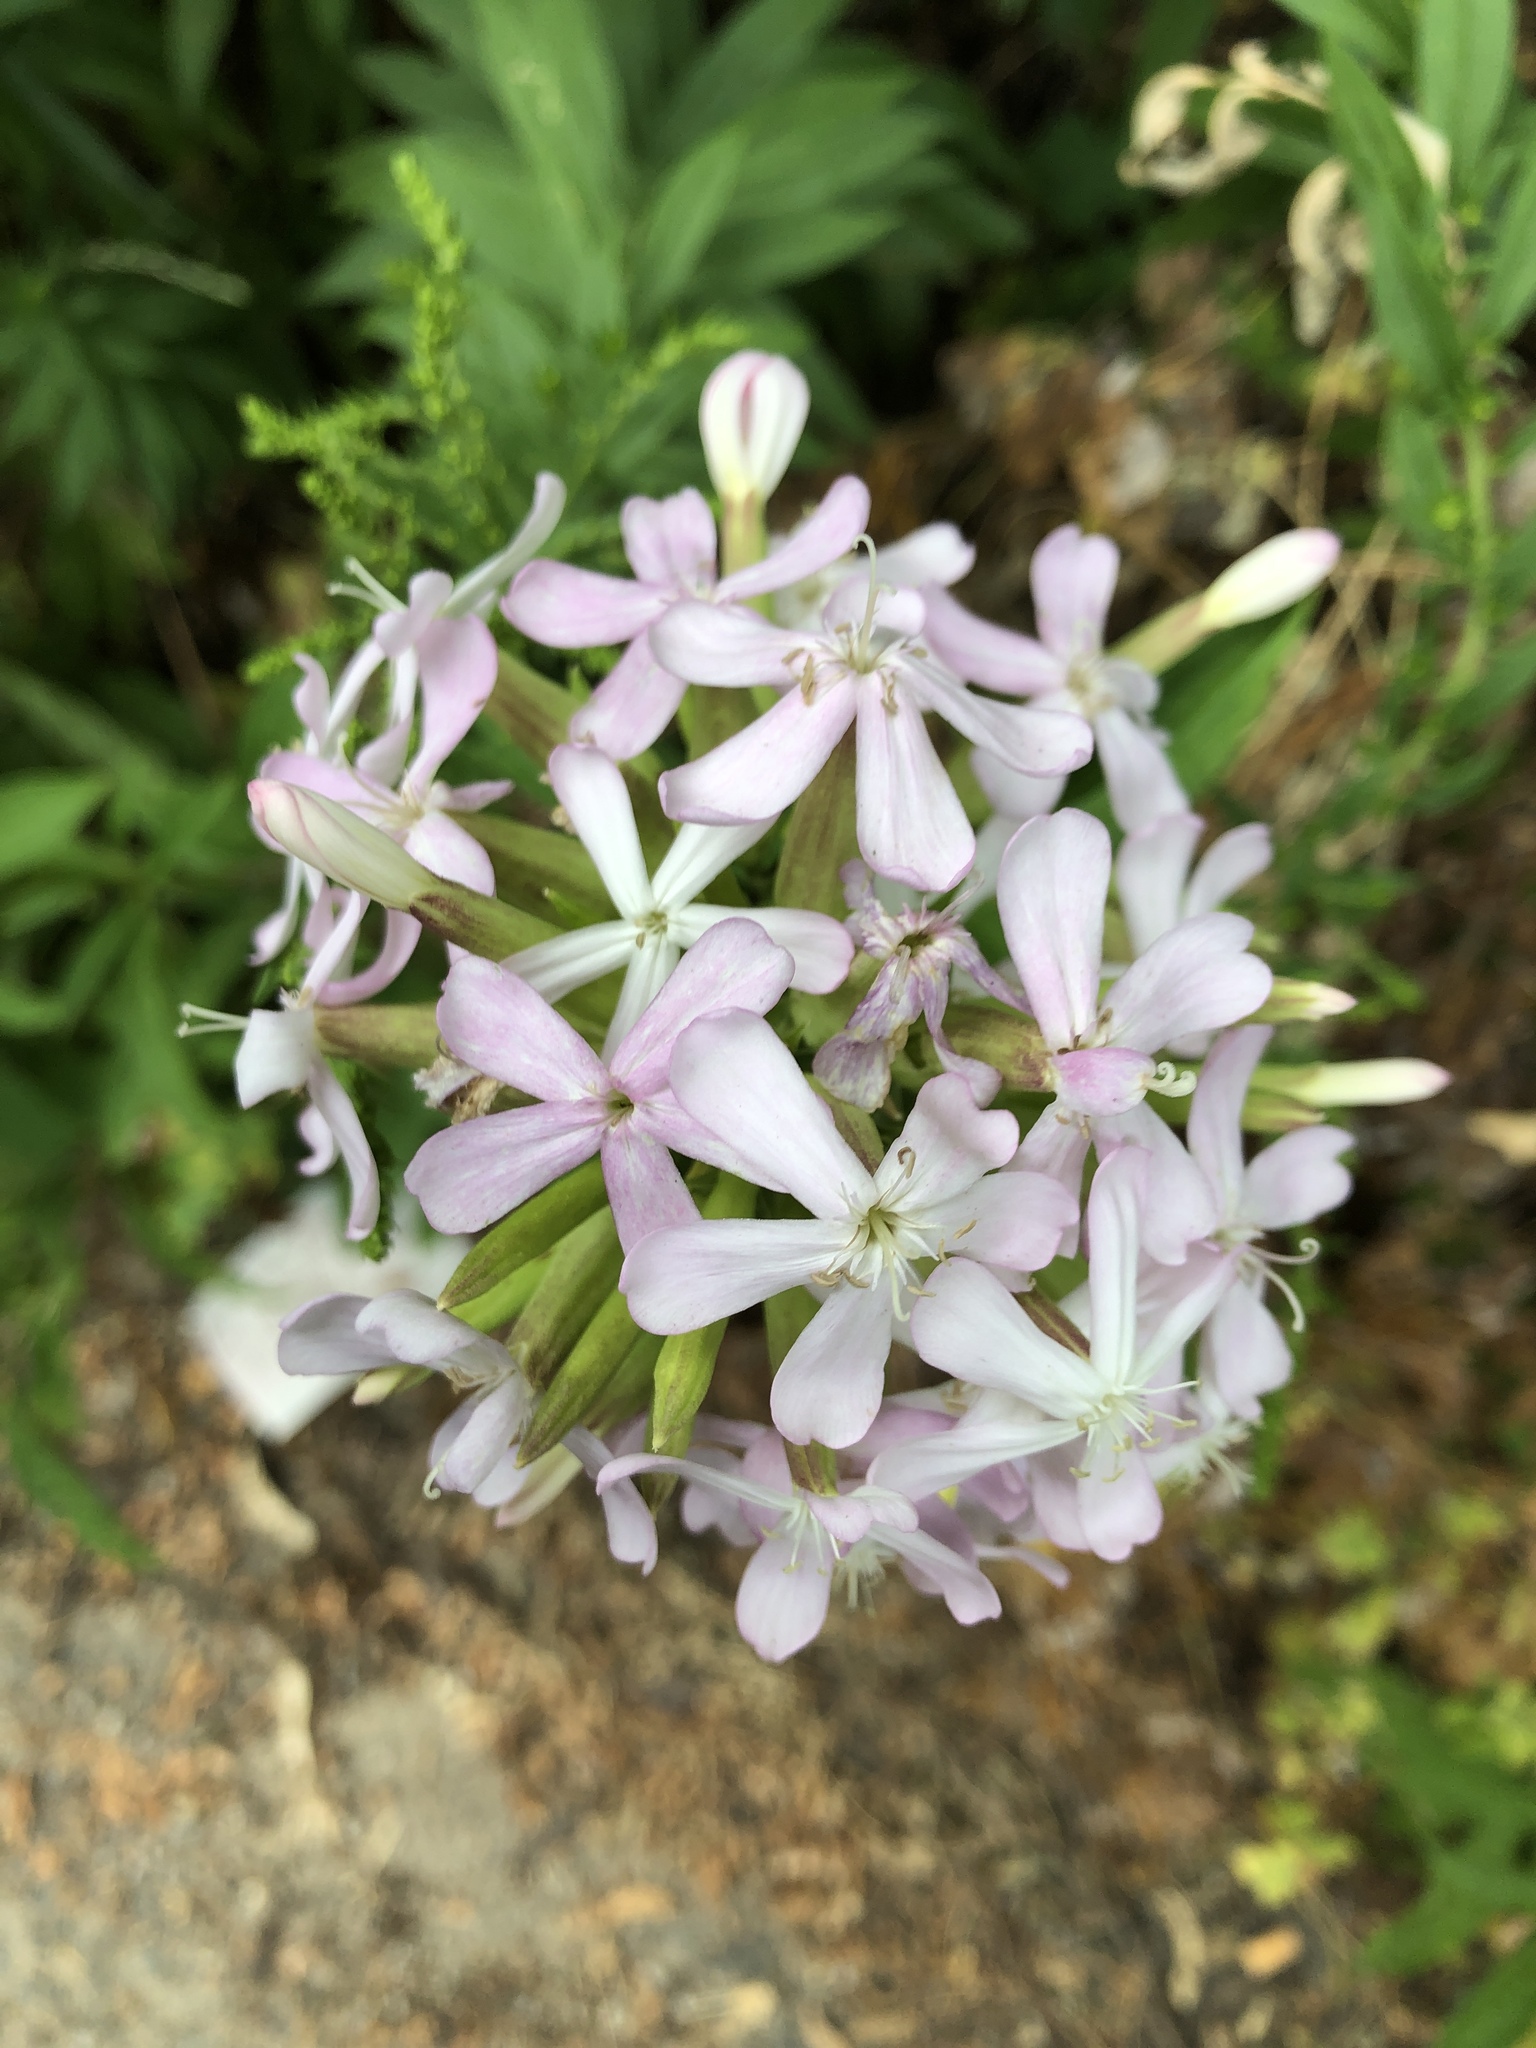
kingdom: Plantae
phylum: Tracheophyta
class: Magnoliopsida
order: Caryophyllales
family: Caryophyllaceae
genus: Saponaria
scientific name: Saponaria officinalis
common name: Soapwort
